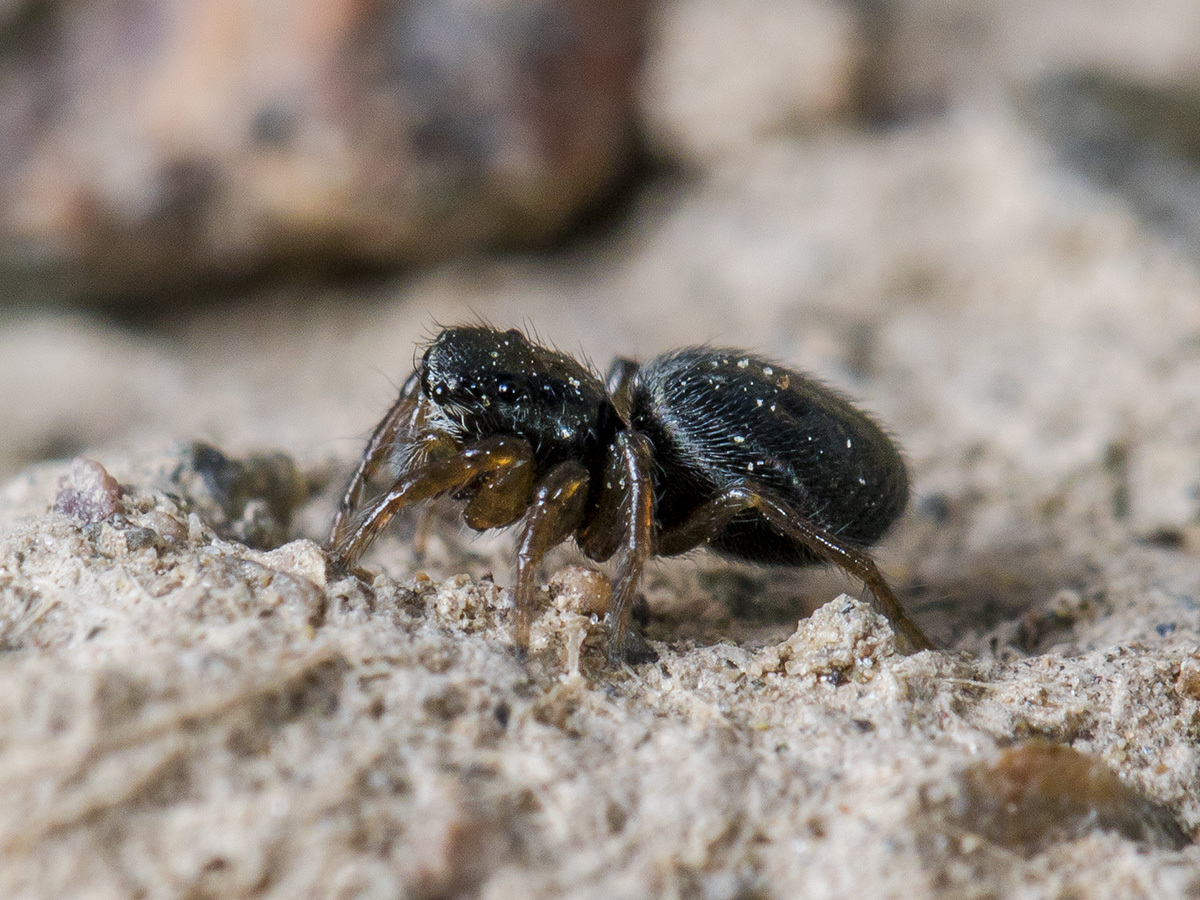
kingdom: Animalia
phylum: Arthropoda
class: Arachnida
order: Araneae
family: Salticidae
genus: Chalcoscirtus
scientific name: Chalcoscirtus nigritus
